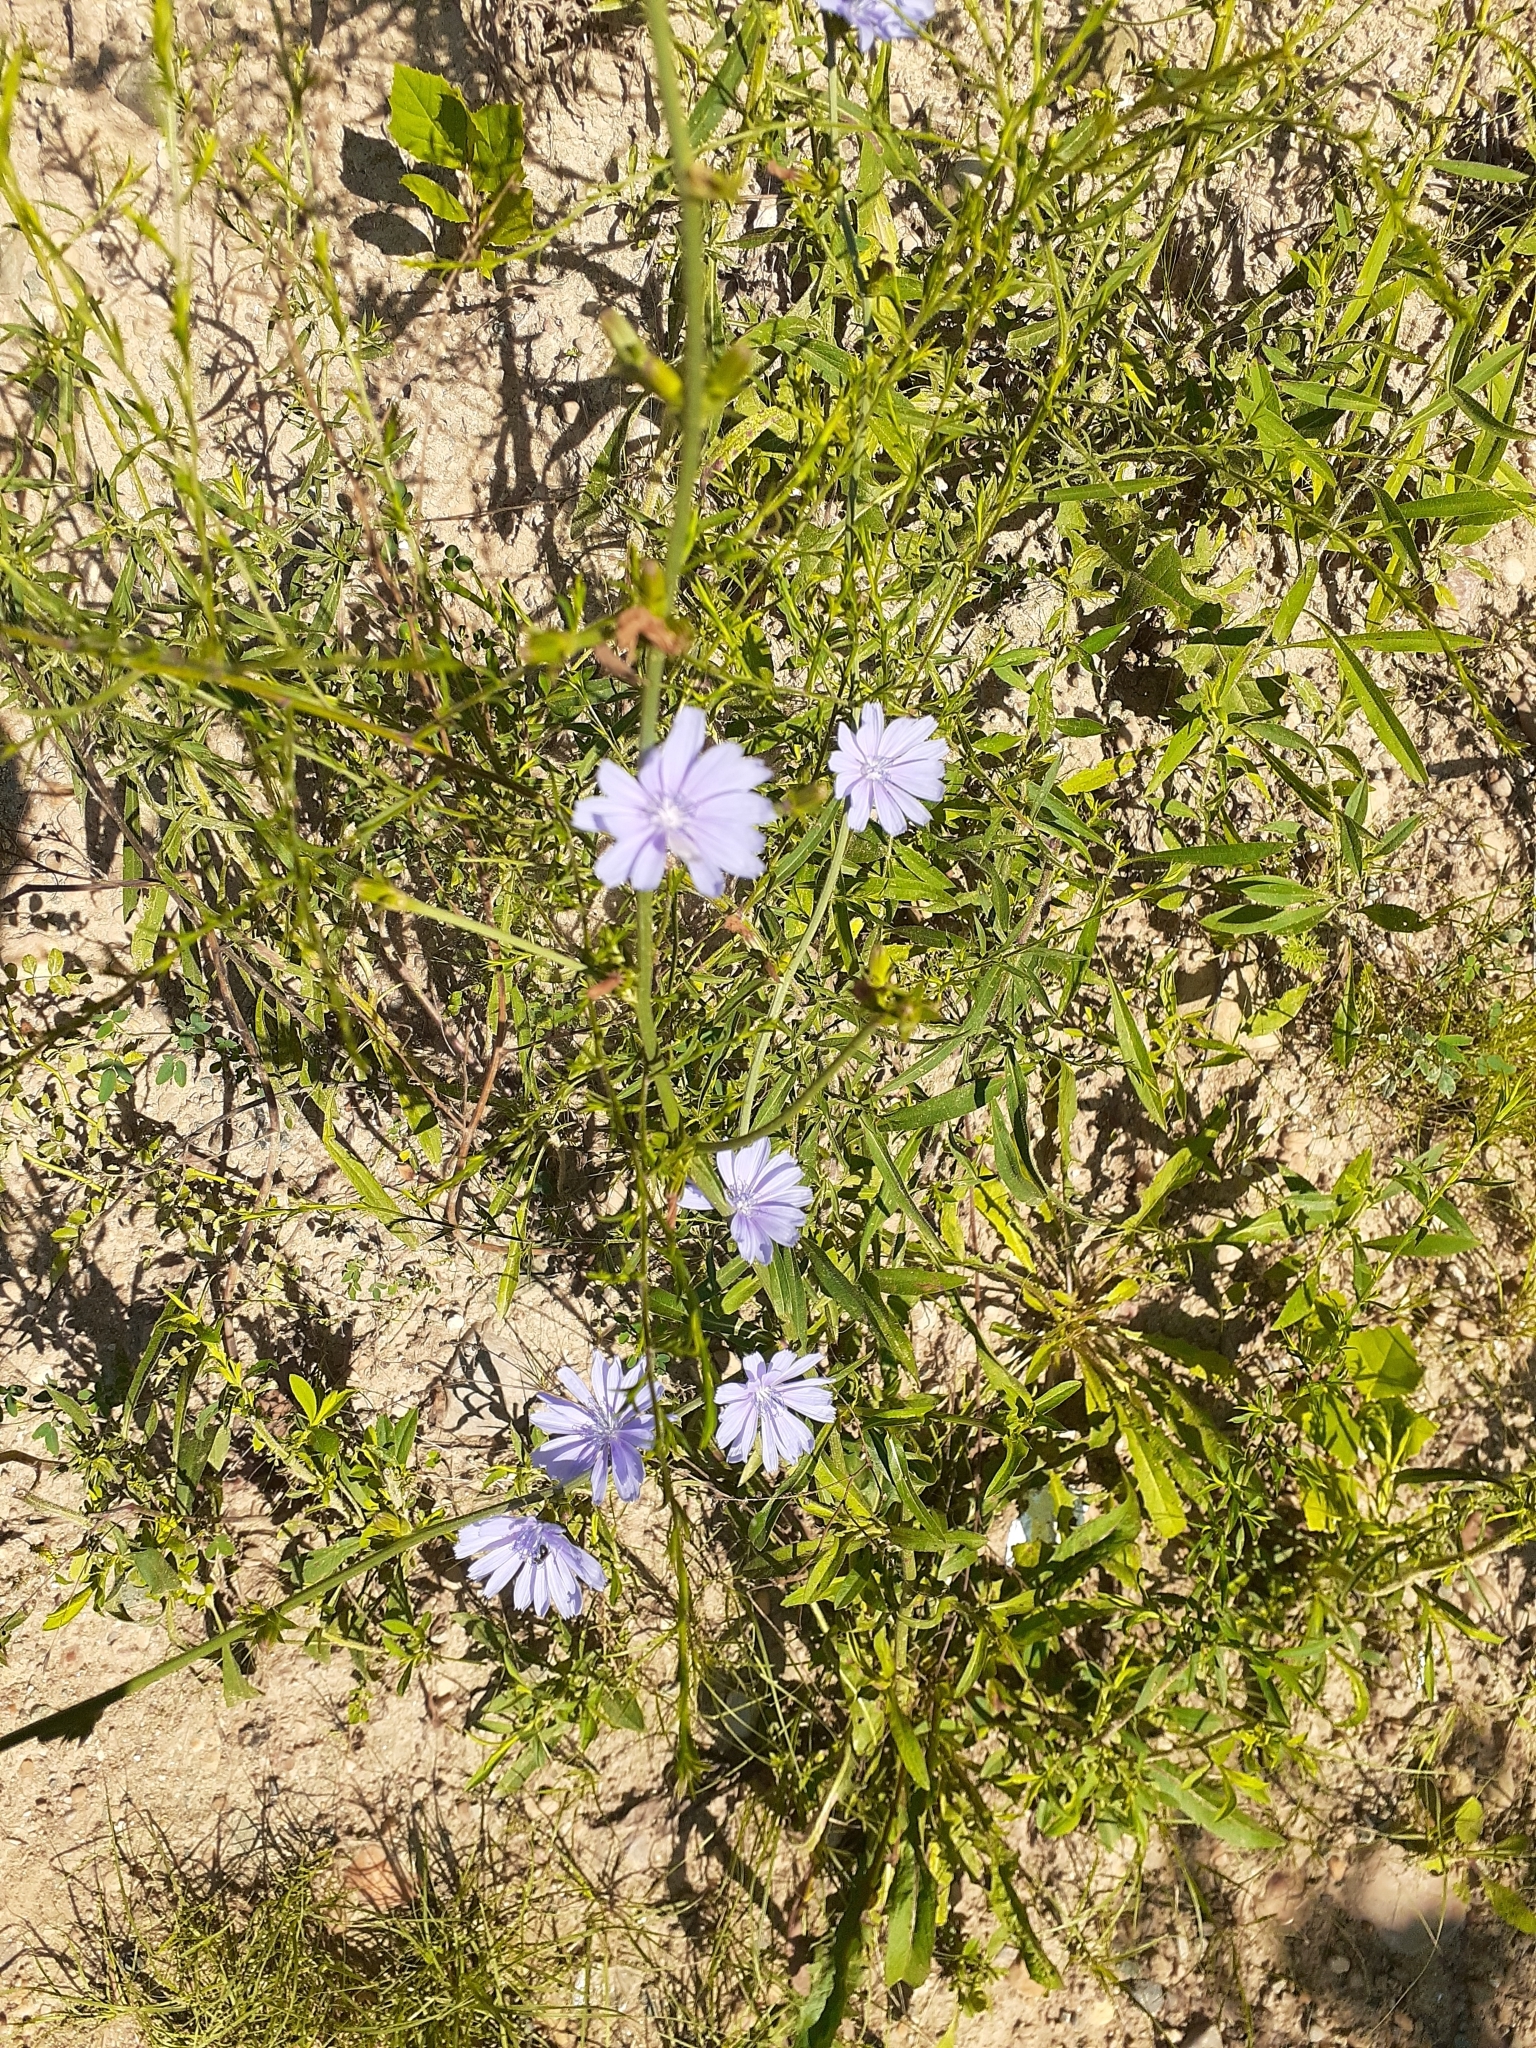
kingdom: Plantae
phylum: Tracheophyta
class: Magnoliopsida
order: Asterales
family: Asteraceae
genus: Cichorium
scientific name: Cichorium intybus
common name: Chicory
